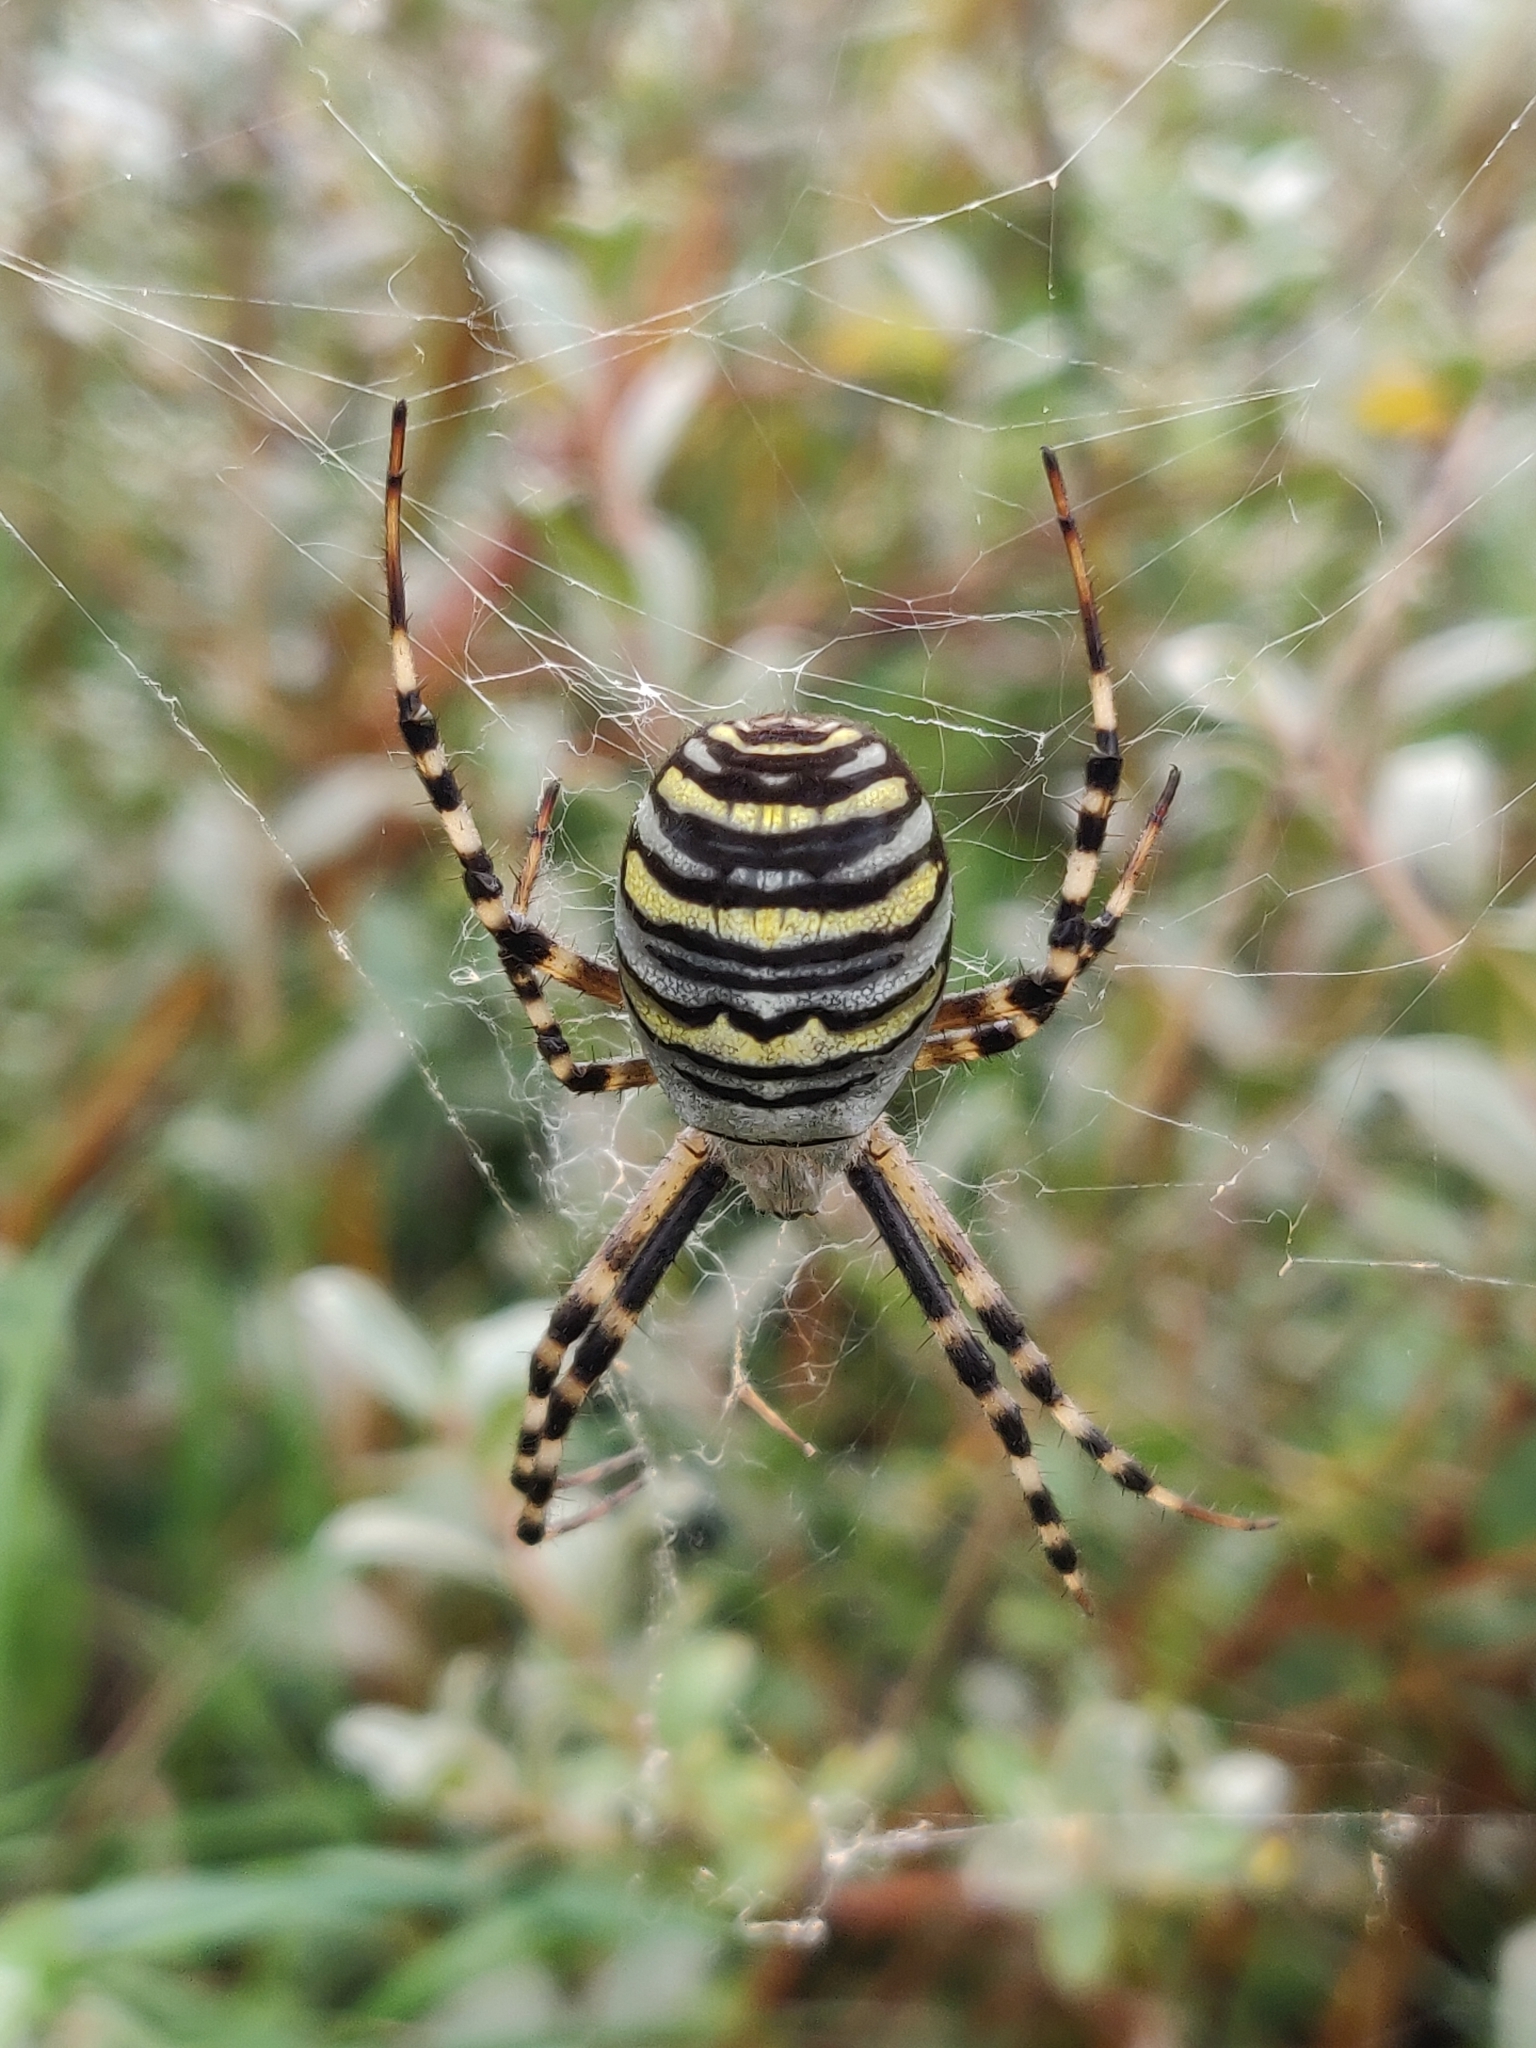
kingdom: Animalia
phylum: Arthropoda
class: Arachnida
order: Araneae
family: Araneidae
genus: Argiope
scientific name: Argiope bruennichi
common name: Wasp spider
